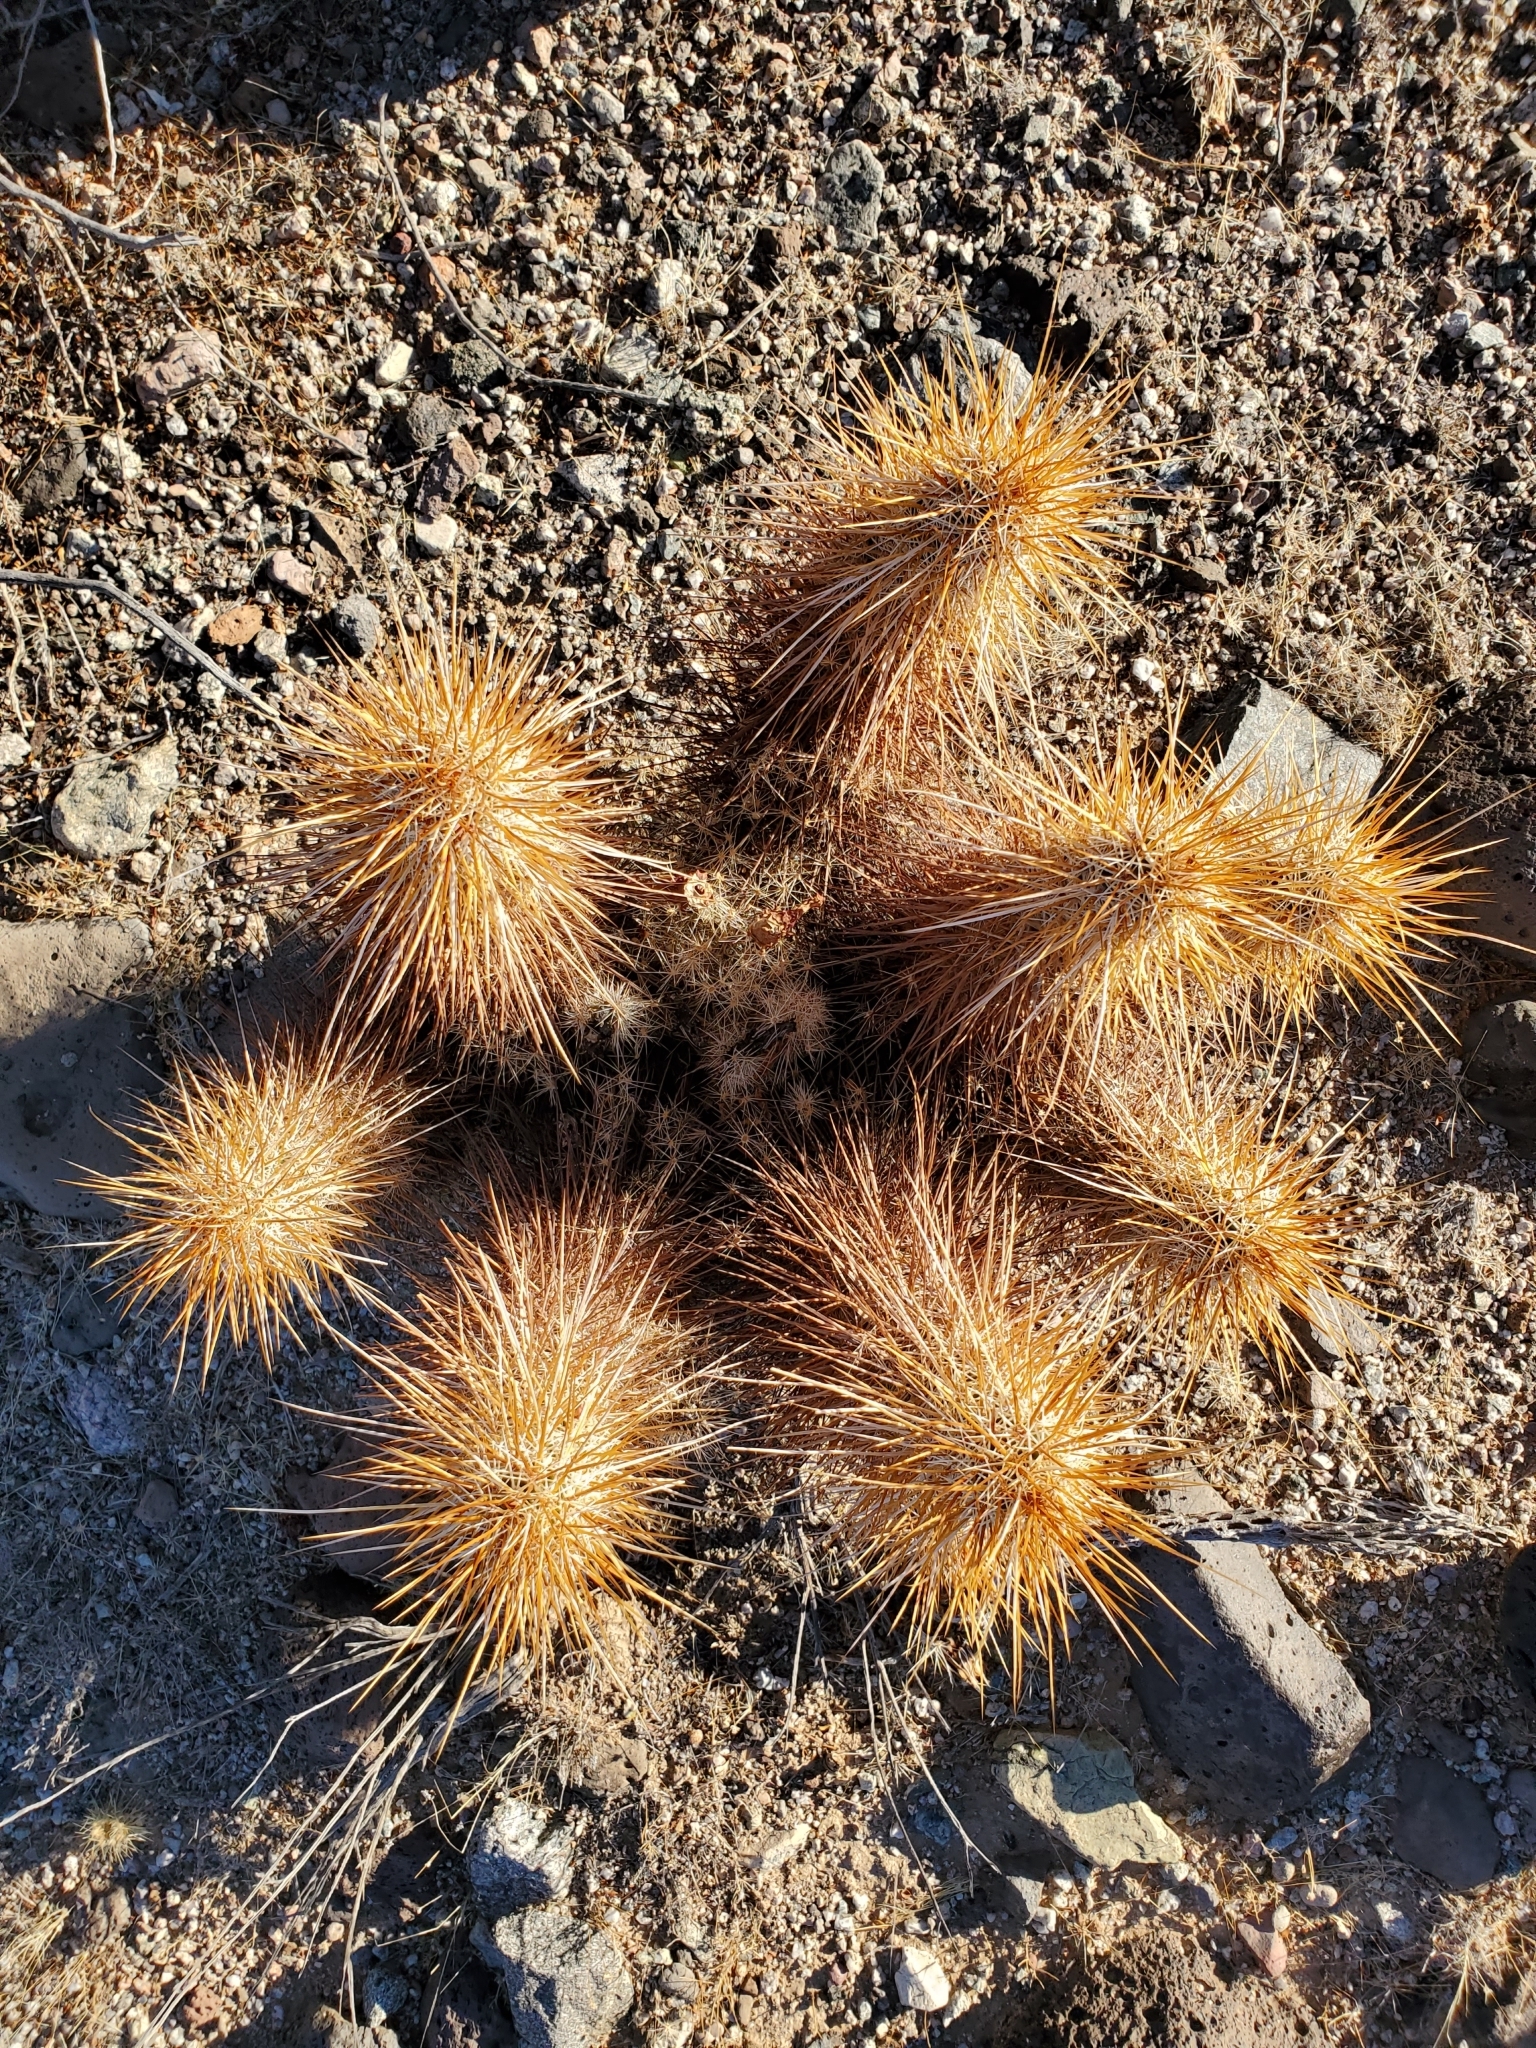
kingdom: Plantae
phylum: Tracheophyta
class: Magnoliopsida
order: Caryophyllales
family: Cactaceae
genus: Echinocereus
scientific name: Echinocereus engelmannii
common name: Engelmann's hedgehog cactus
